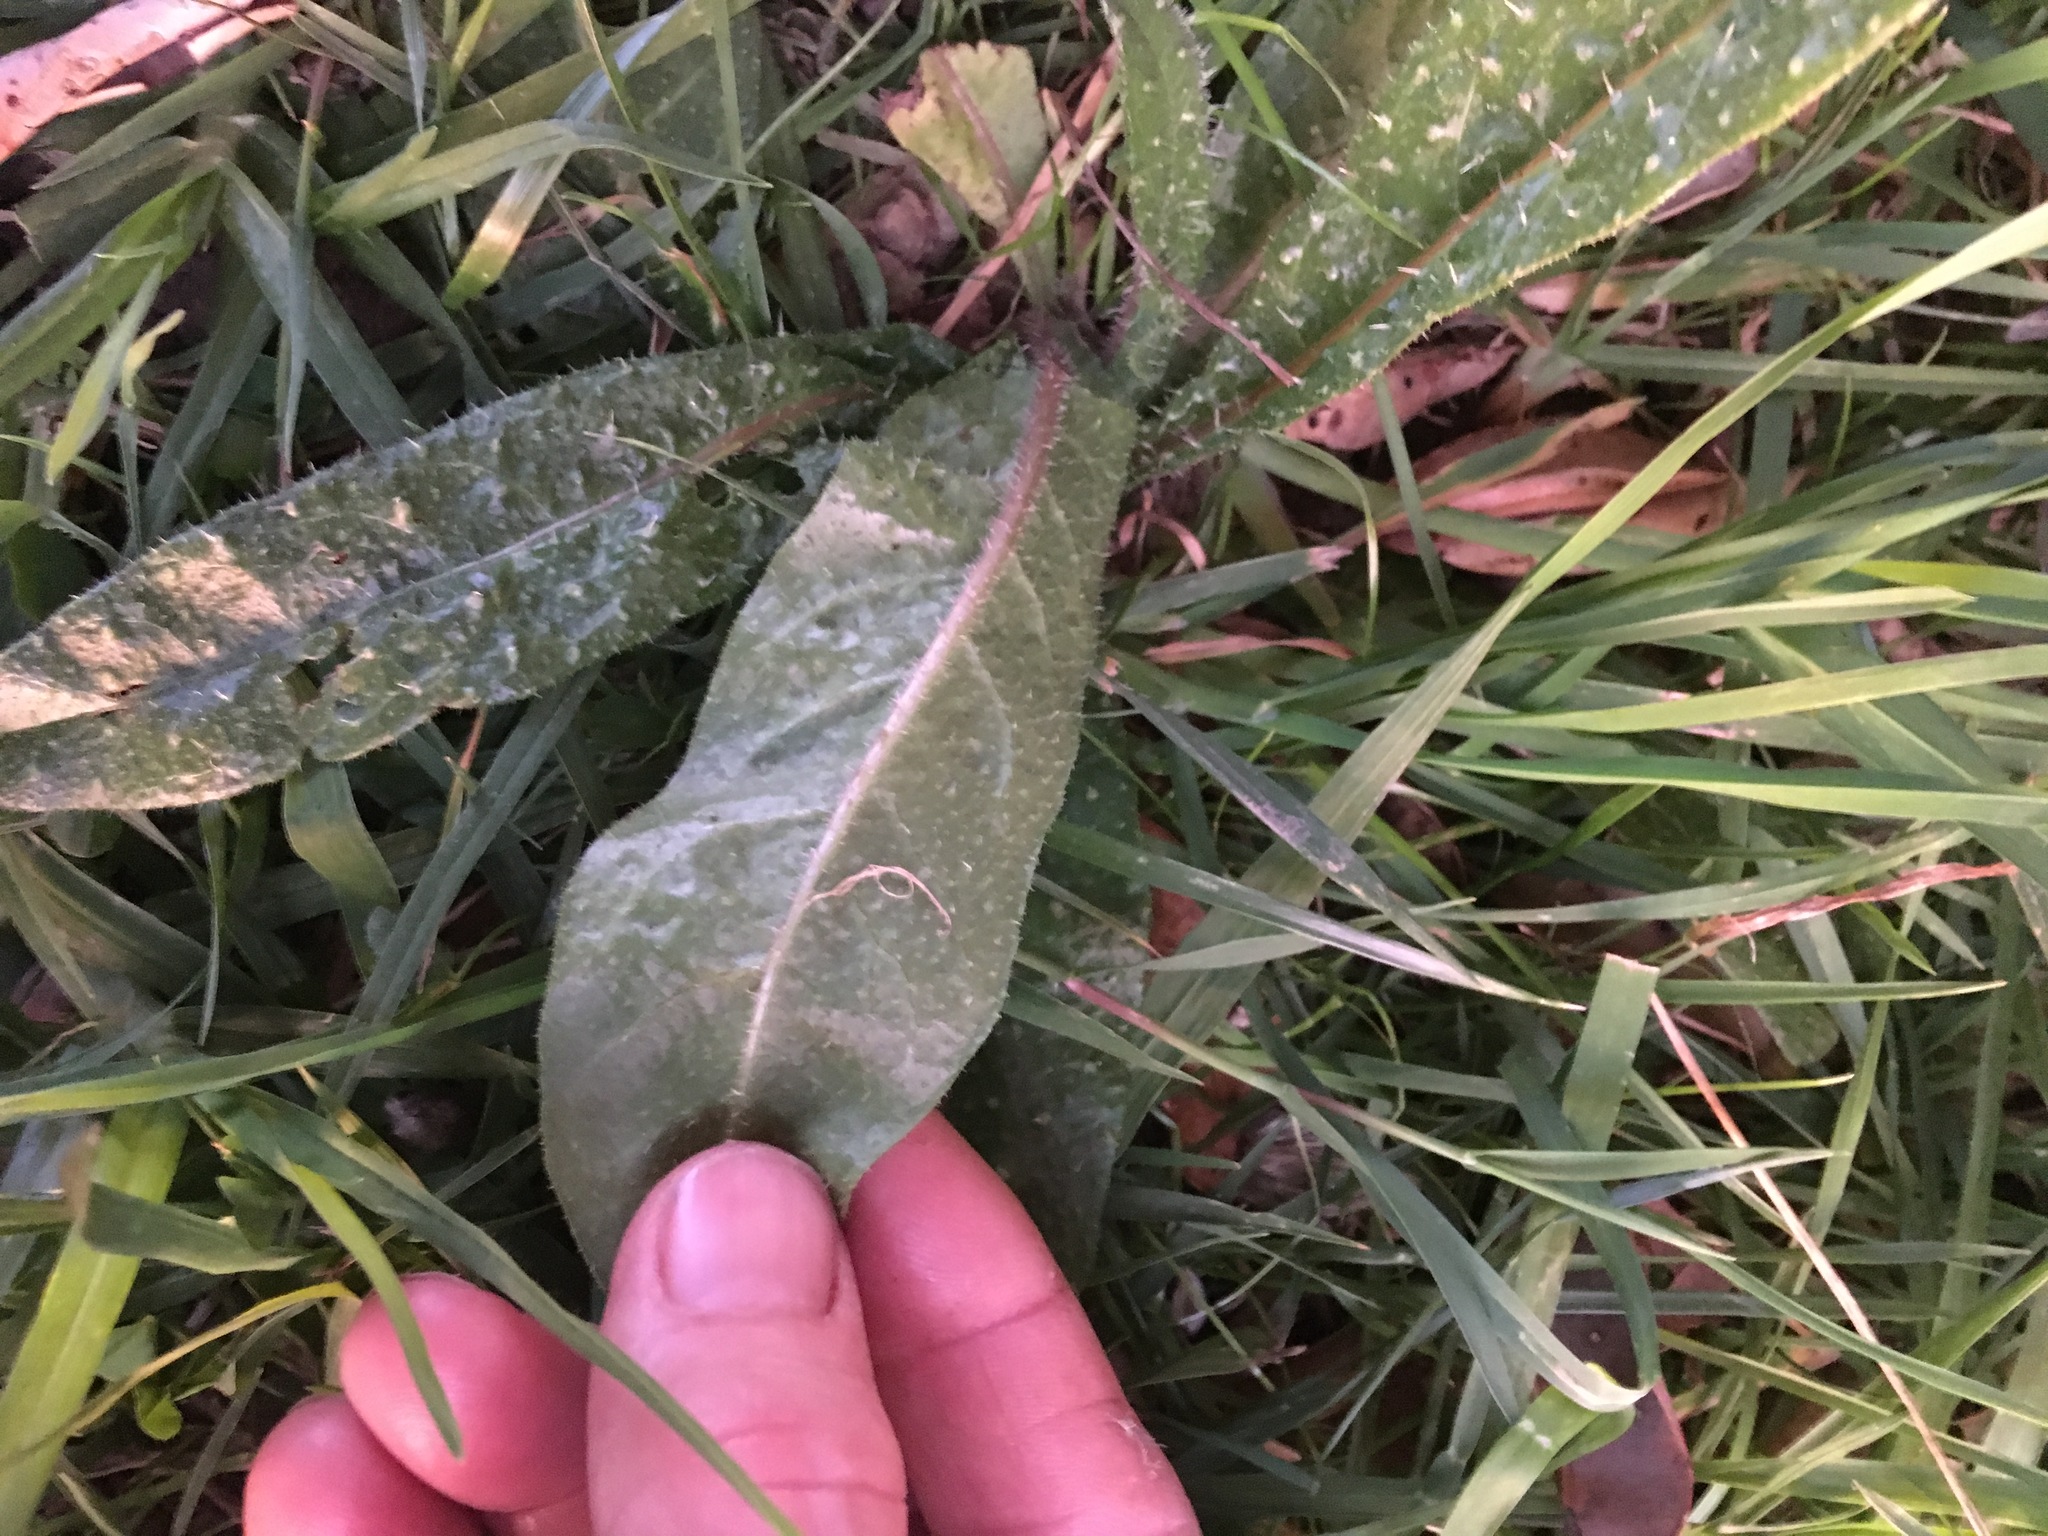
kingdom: Plantae
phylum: Tracheophyta
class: Magnoliopsida
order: Asterales
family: Asteraceae
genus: Helminthotheca
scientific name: Helminthotheca echioides
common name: Ox-tongue
